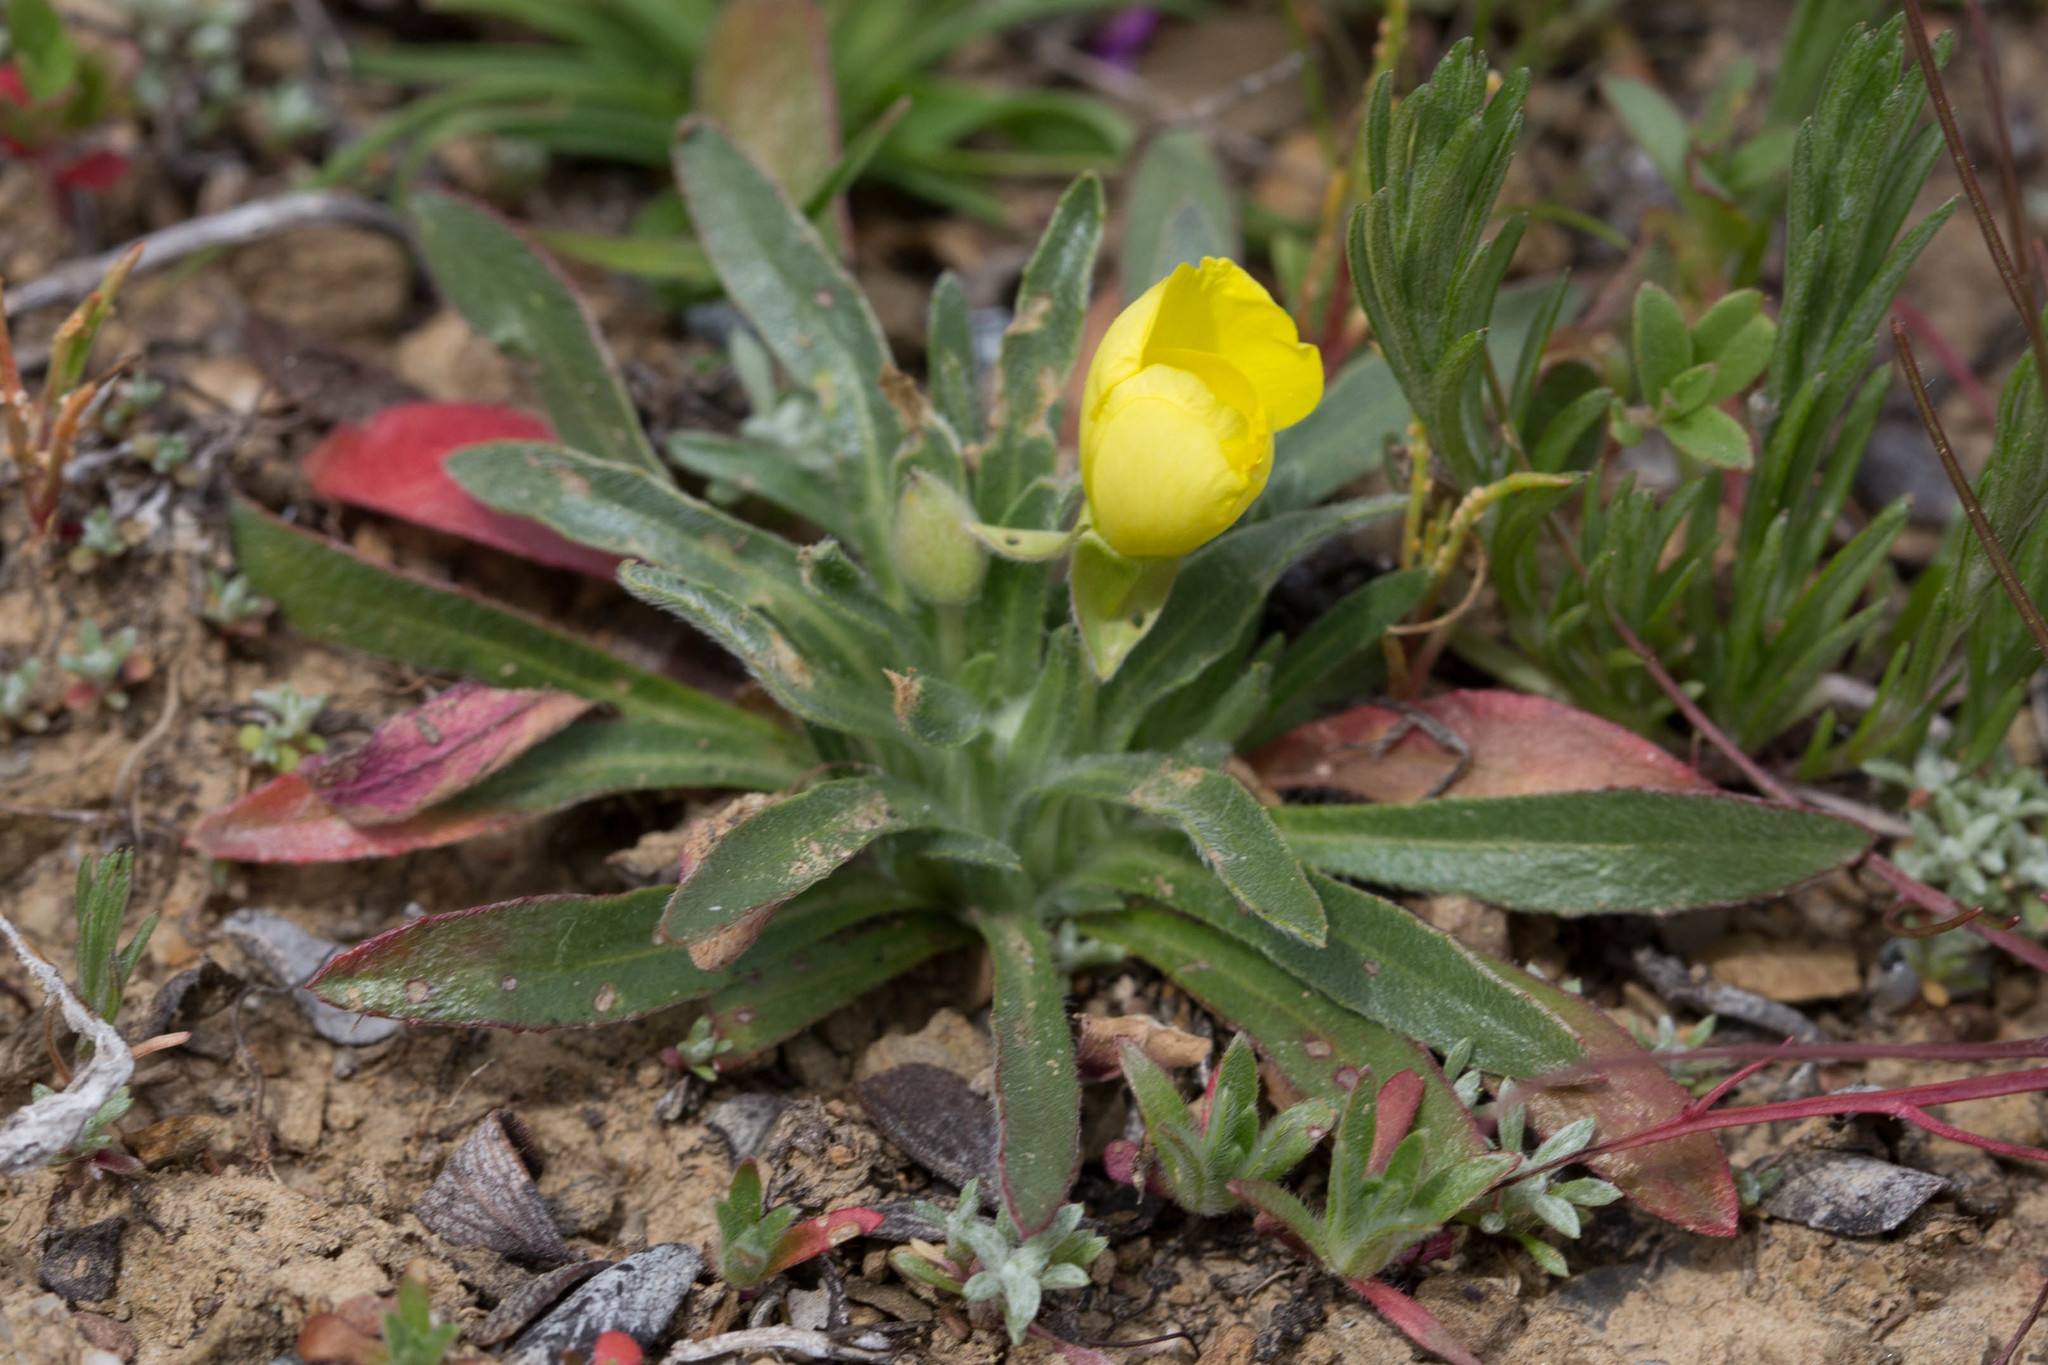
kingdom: Plantae
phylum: Tracheophyta
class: Magnoliopsida
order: Myrtales
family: Onagraceae
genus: Tetrapteron
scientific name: Tetrapteron graciliflorum
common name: Hill suncup
